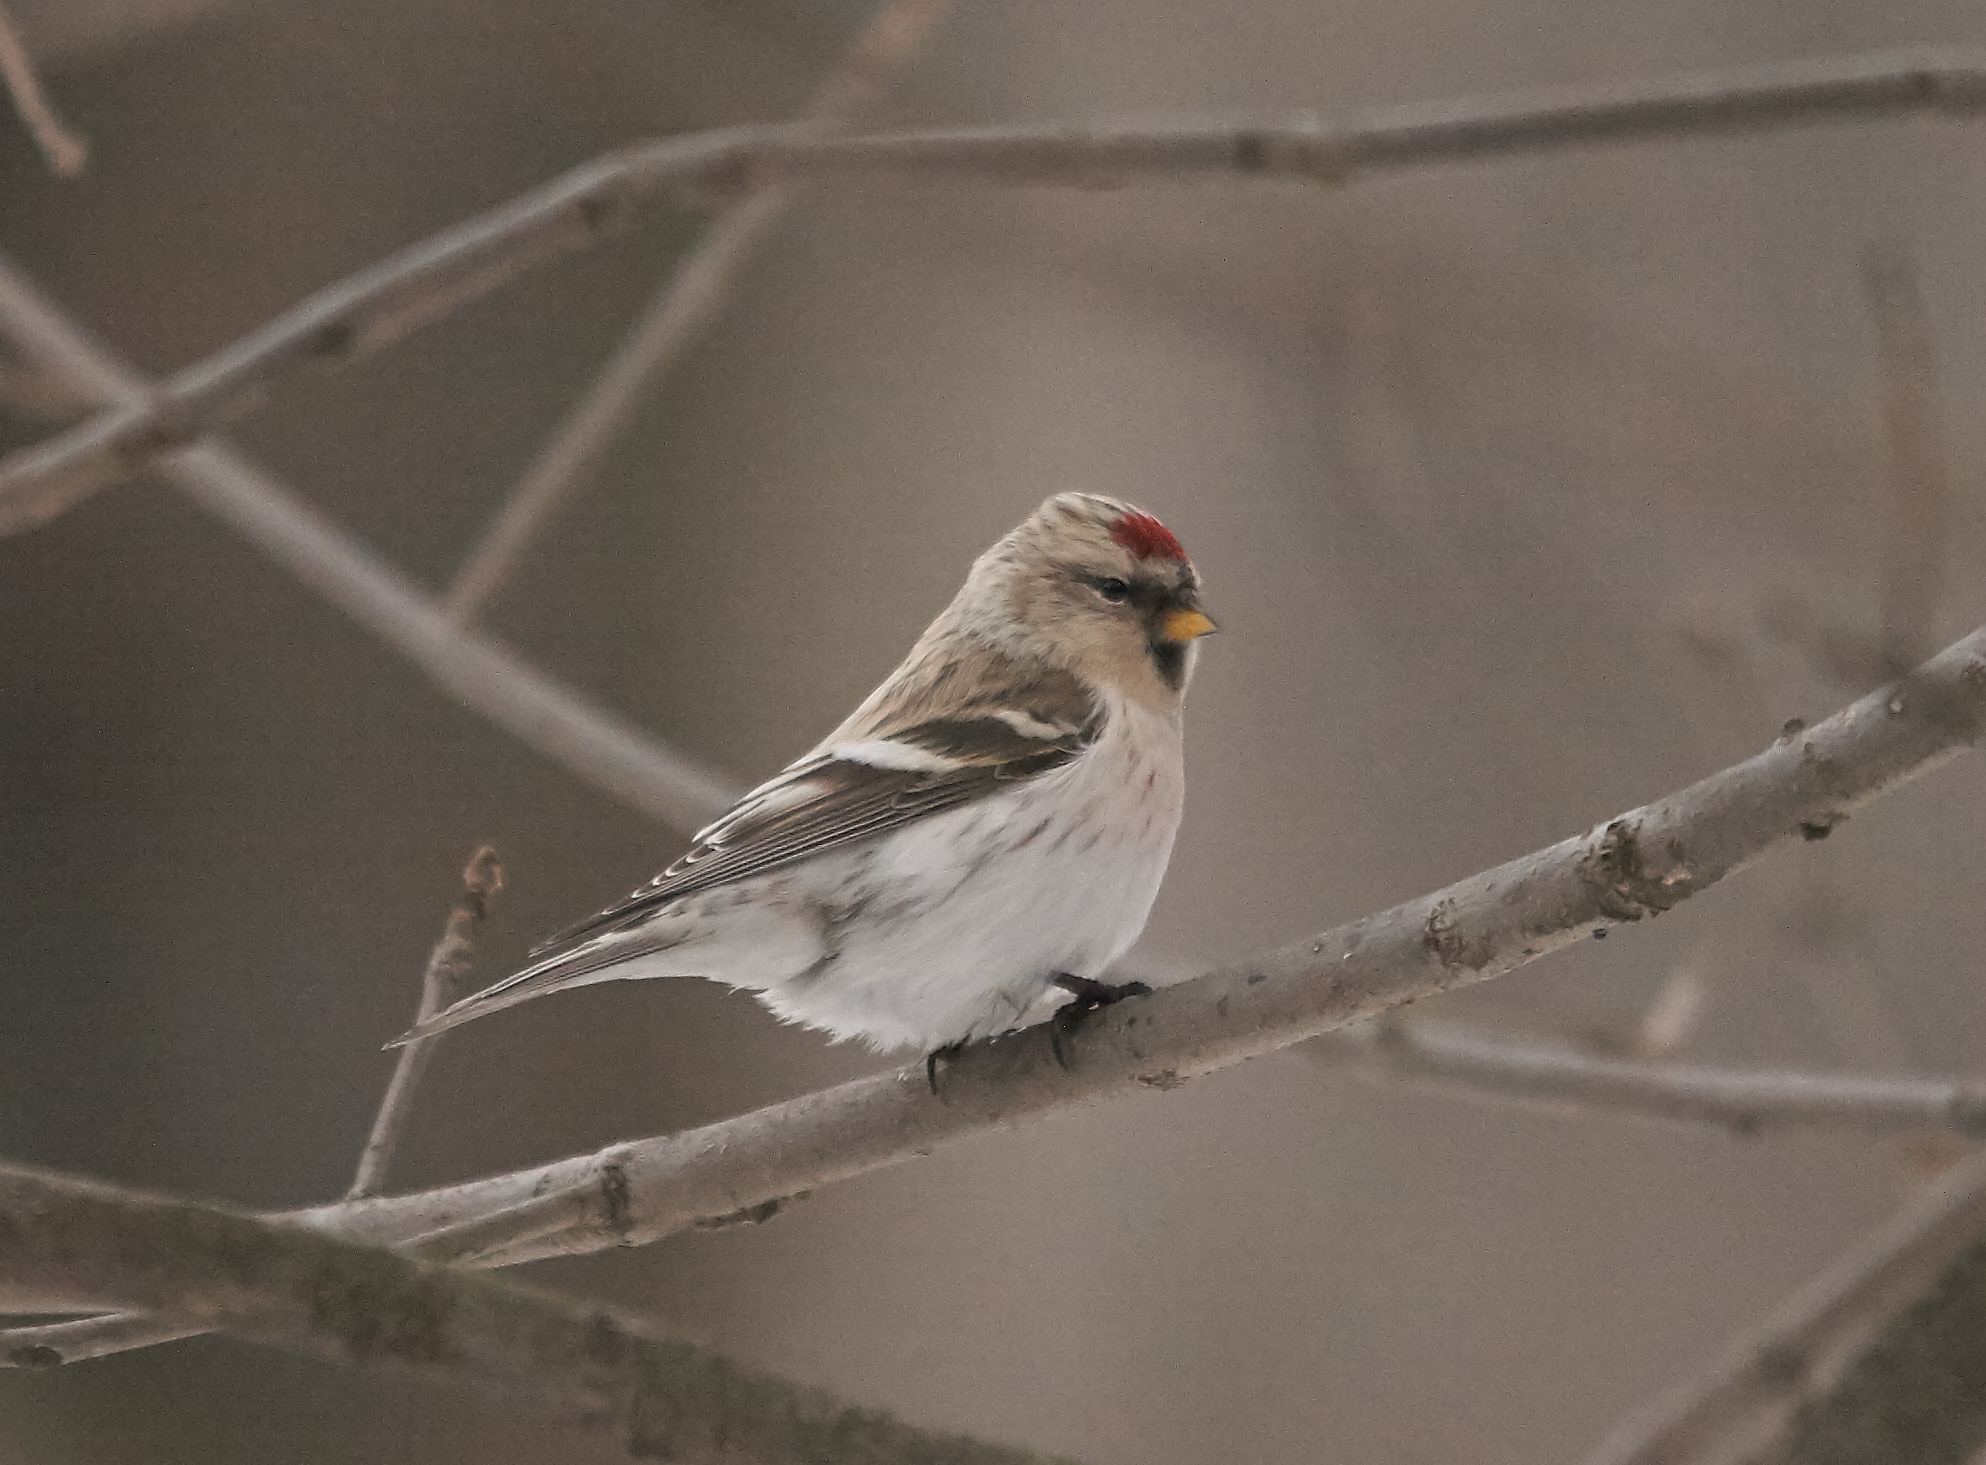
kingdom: Animalia
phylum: Chordata
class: Aves
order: Passeriformes
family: Fringillidae
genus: Acanthis
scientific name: Acanthis hornemanni
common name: Arctic redpoll
